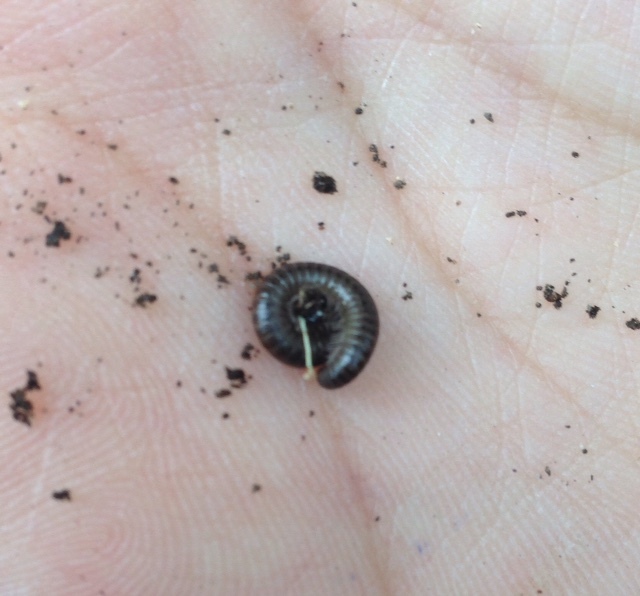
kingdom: Animalia
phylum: Arthropoda
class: Diplopoda
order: Julida
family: Julidae
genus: Ommatoiulus
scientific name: Ommatoiulus moreleti
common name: Portuguese millipede
